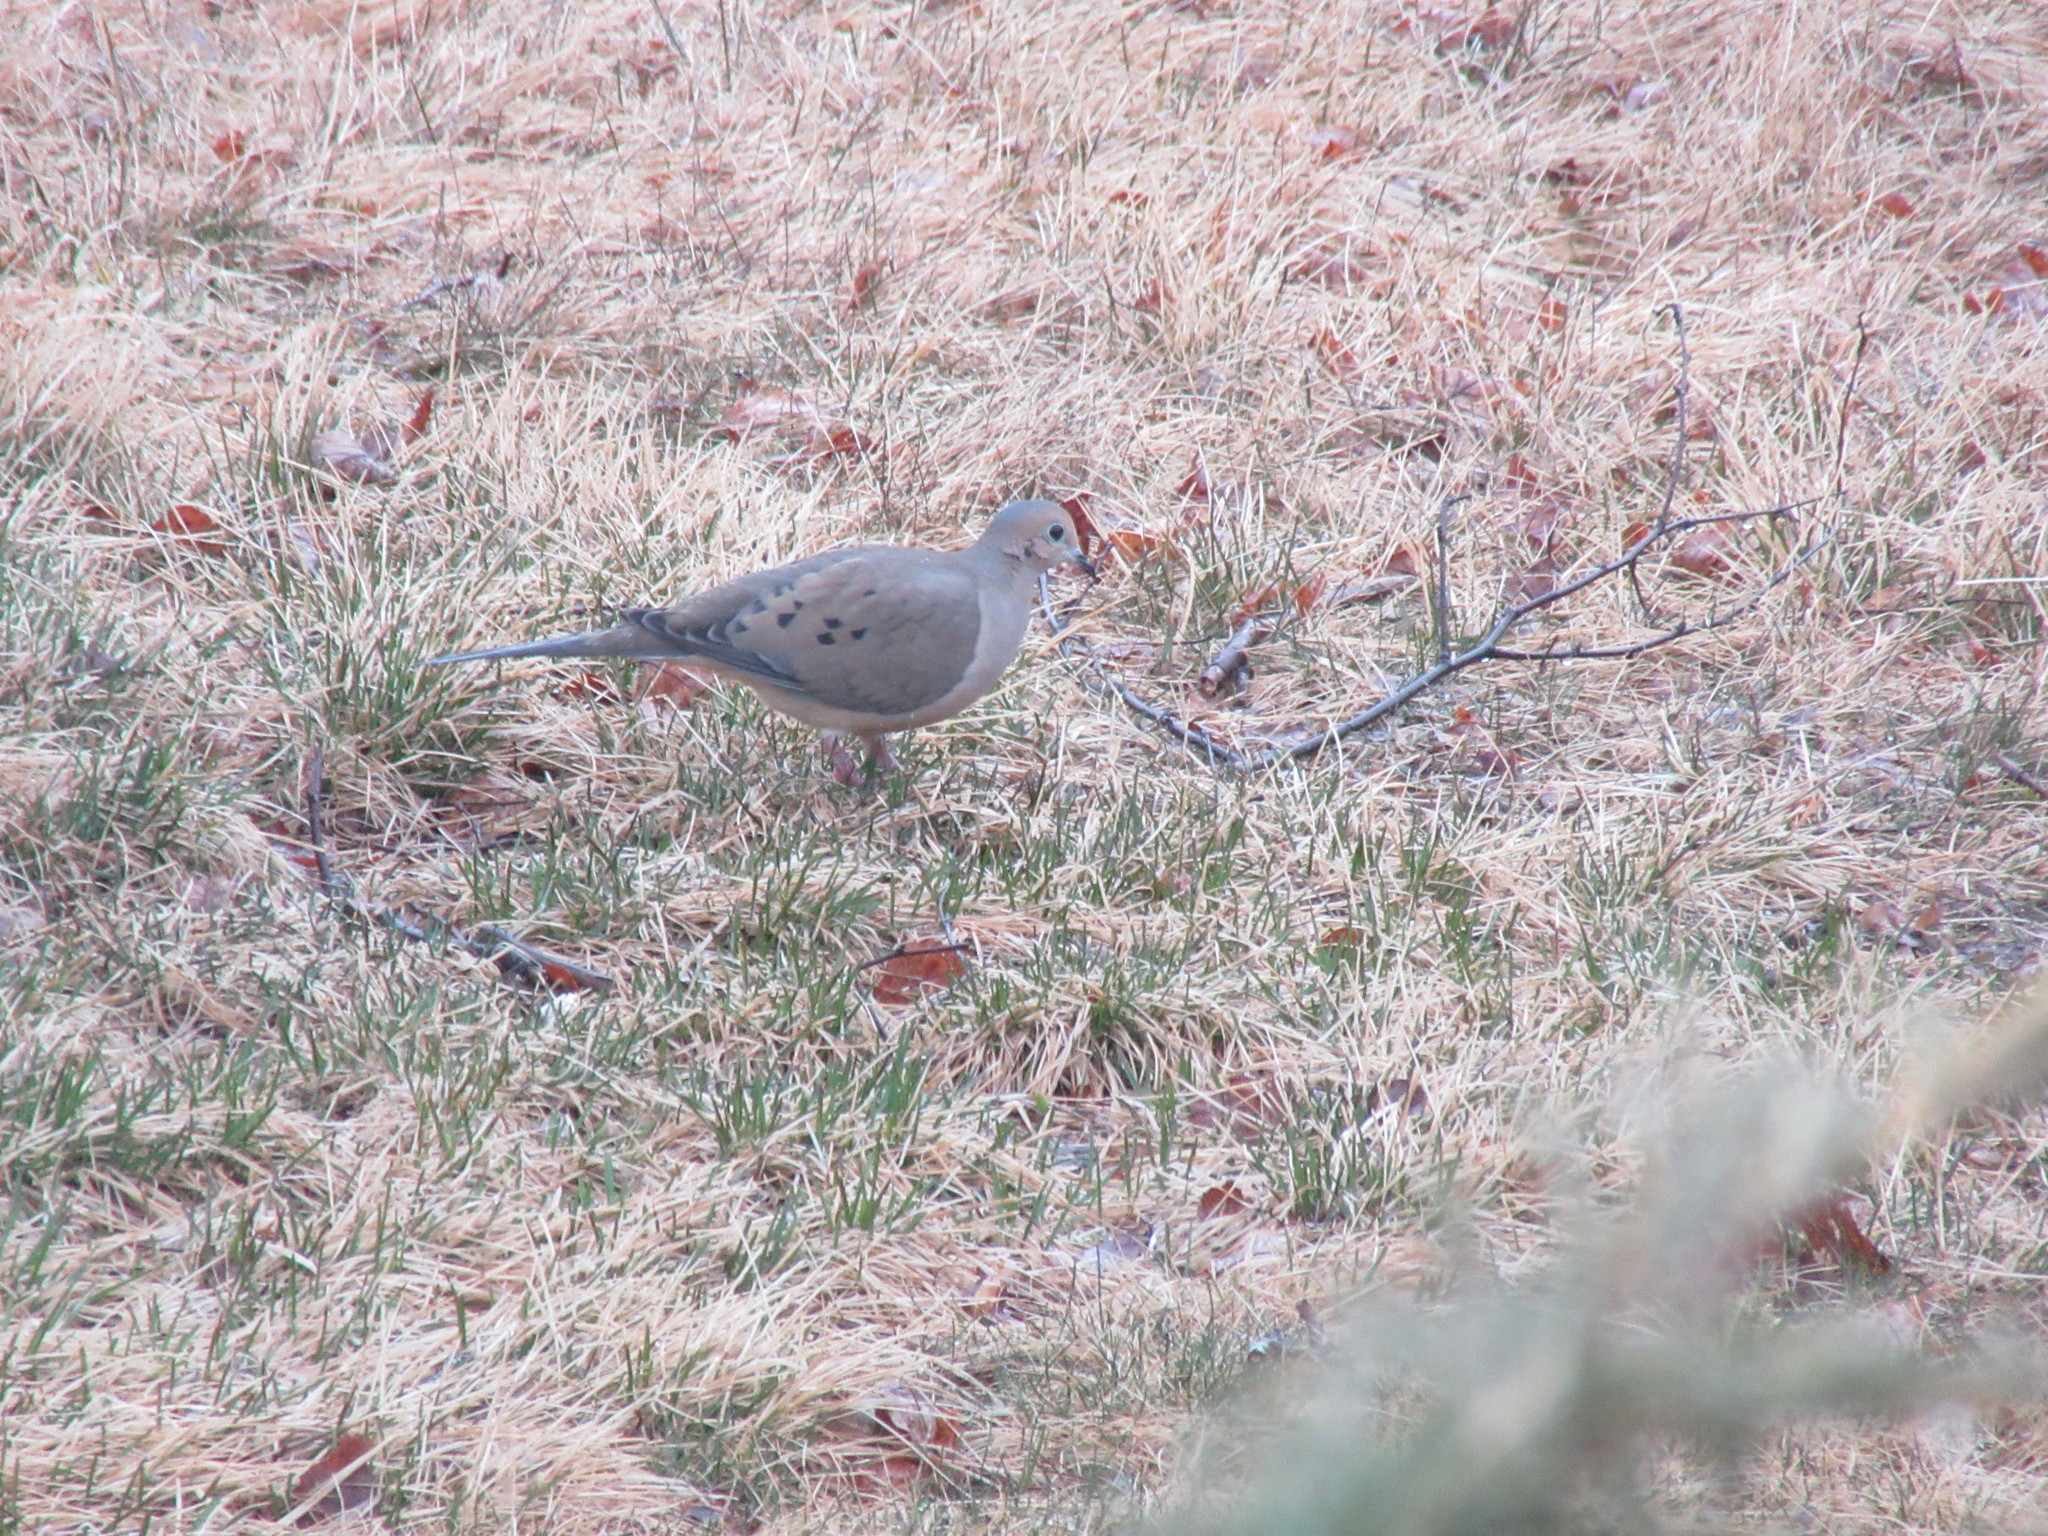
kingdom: Animalia
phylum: Chordata
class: Aves
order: Columbiformes
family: Columbidae
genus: Zenaida
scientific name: Zenaida macroura
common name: Mourning dove
